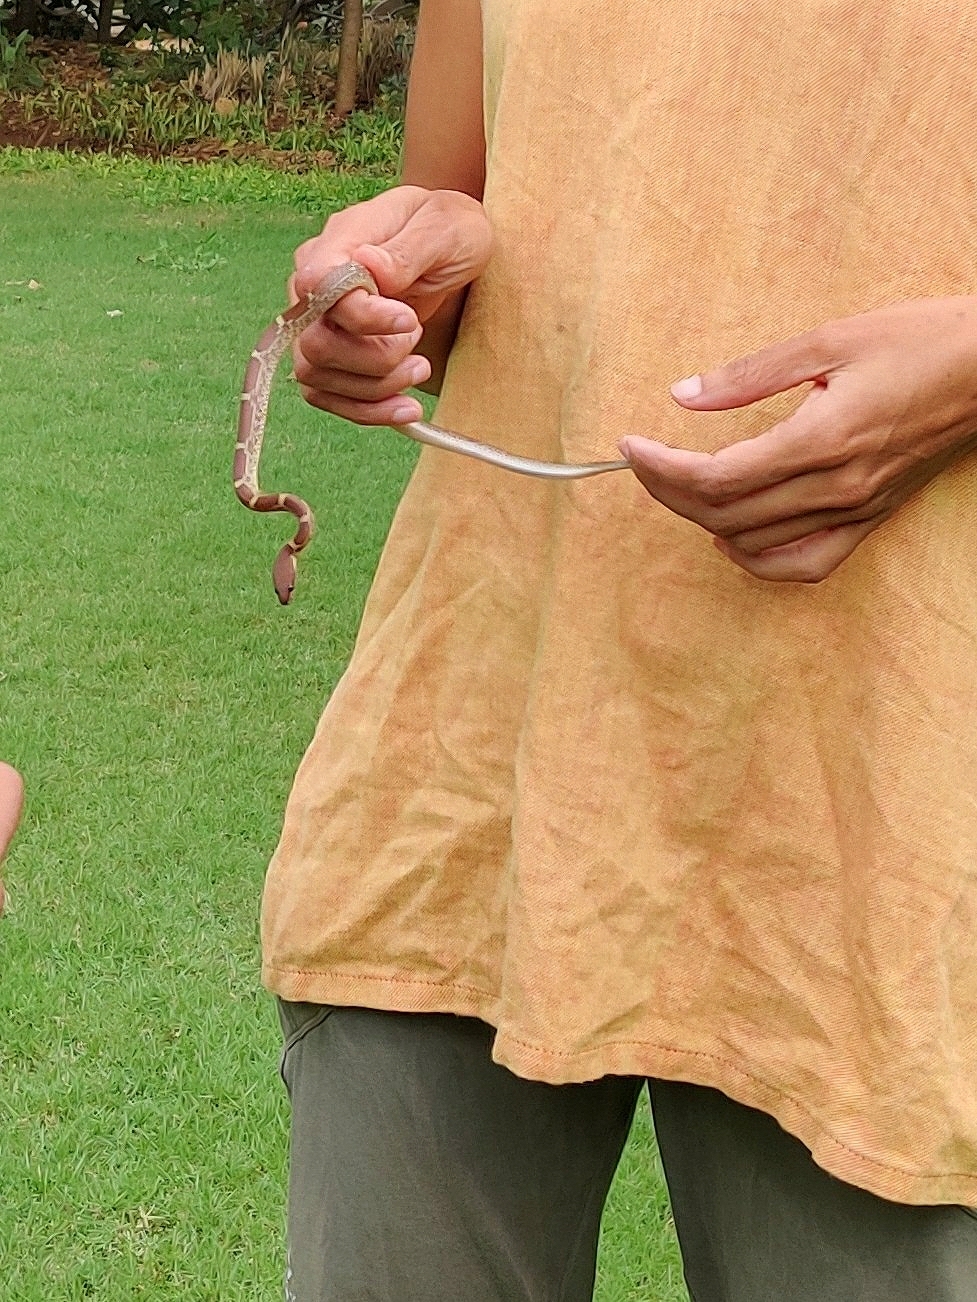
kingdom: Animalia
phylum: Chordata
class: Squamata
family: Colubridae
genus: Lycodon
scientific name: Lycodon fasciolatus
